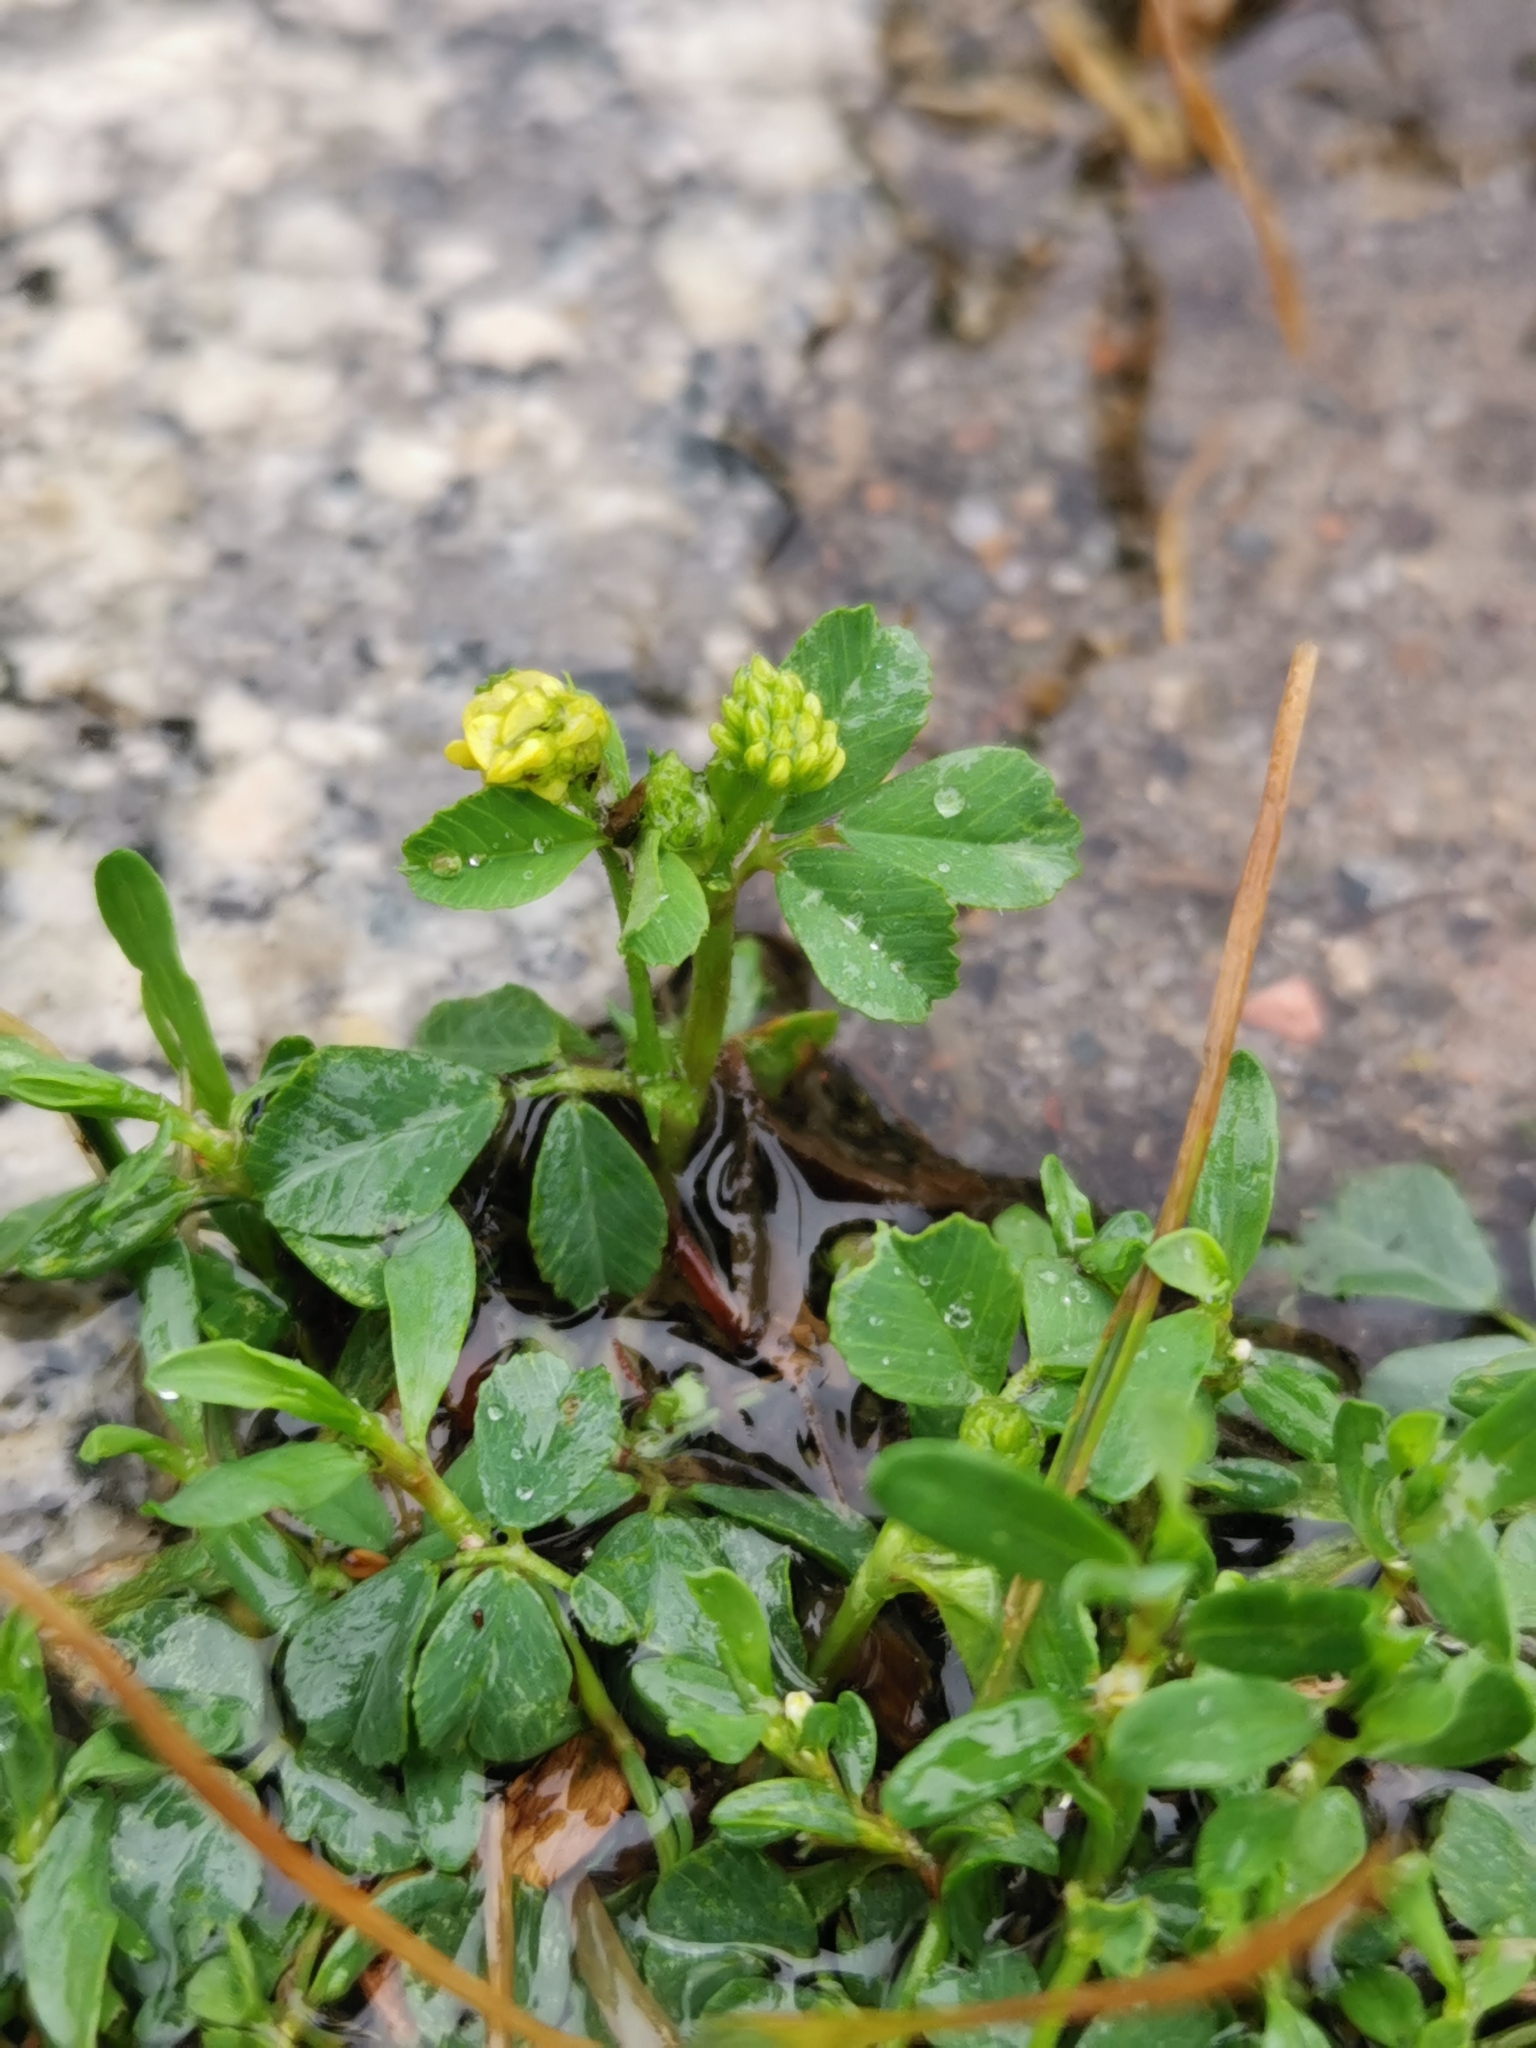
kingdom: Plantae
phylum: Tracheophyta
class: Magnoliopsida
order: Fabales
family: Fabaceae
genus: Medicago
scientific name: Medicago lupulina
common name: Black medick
